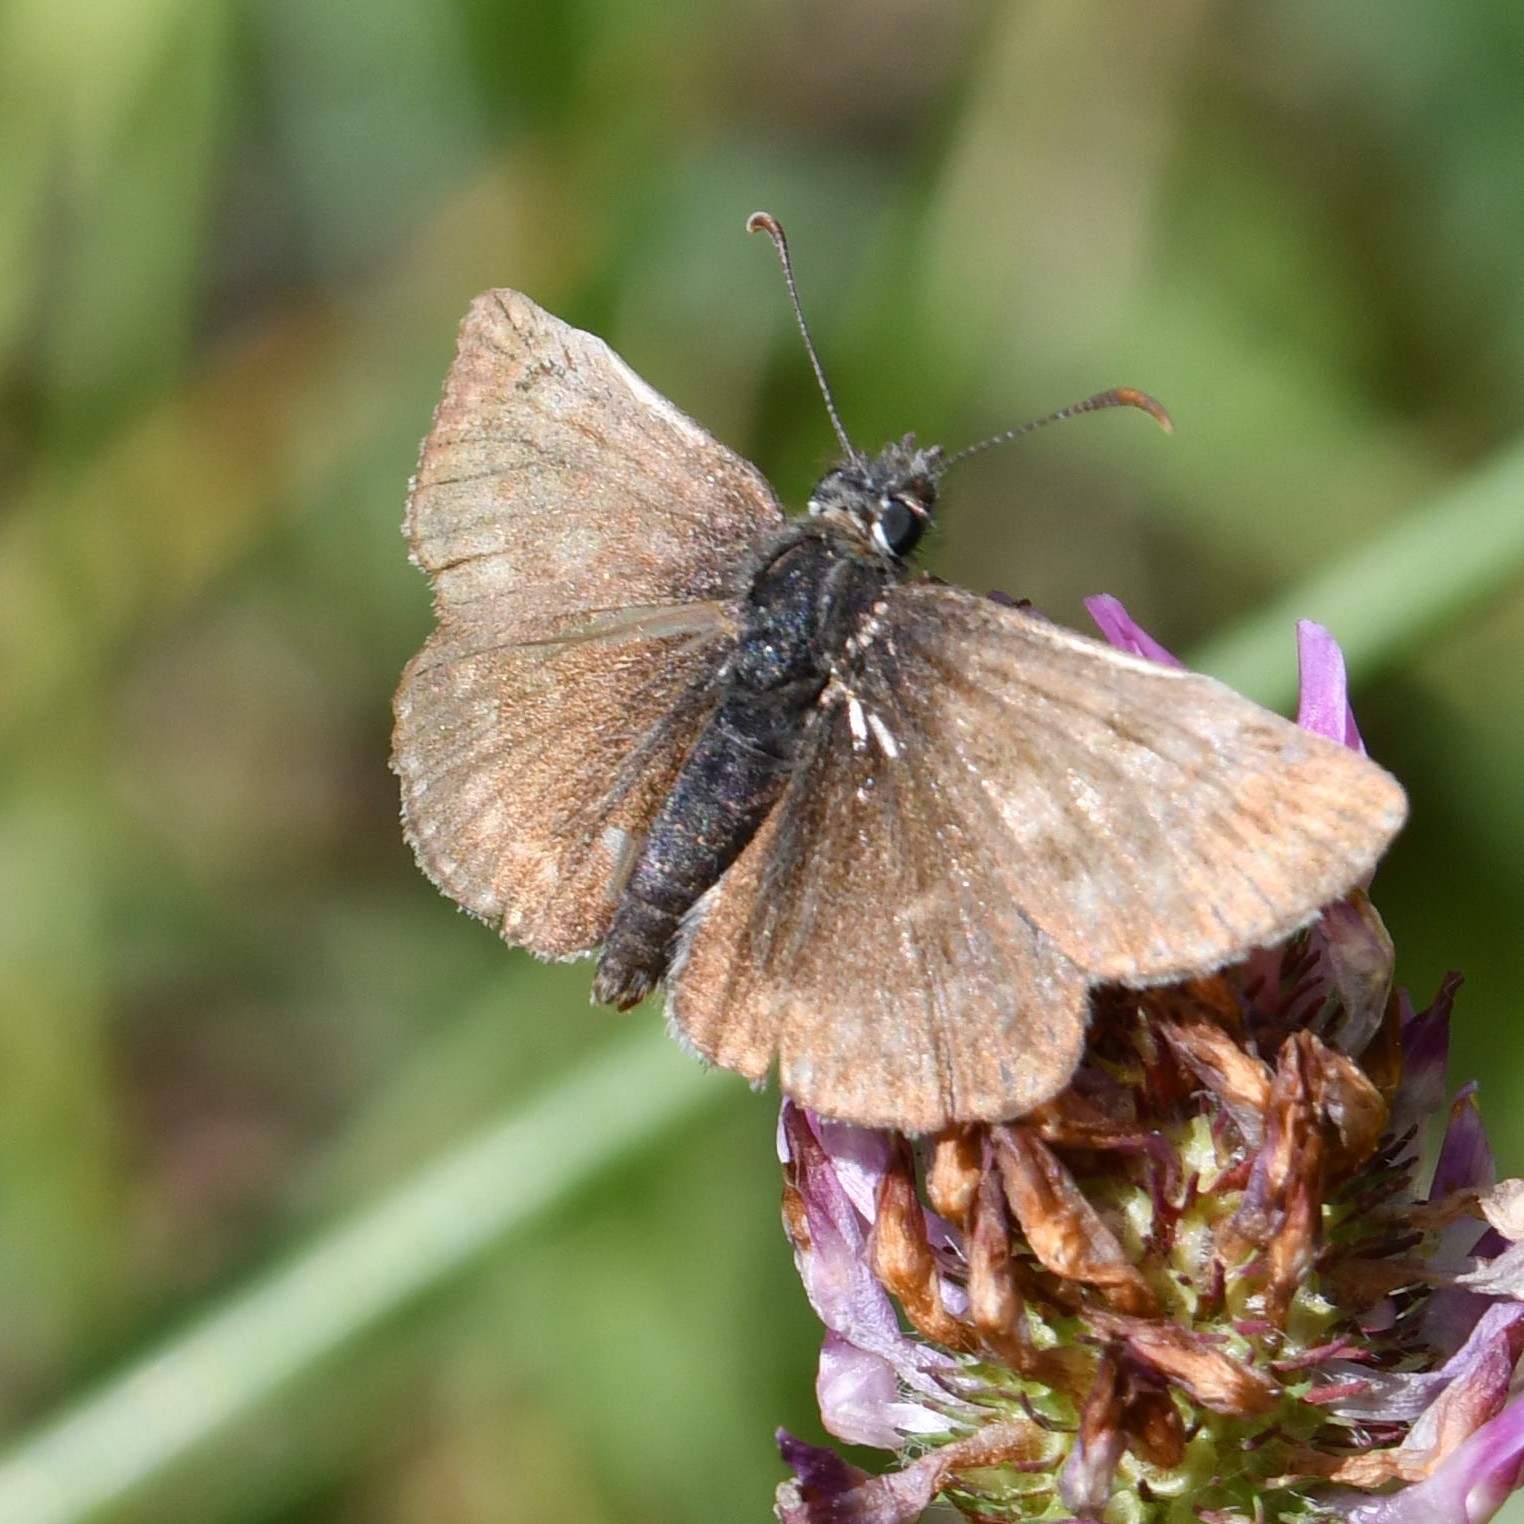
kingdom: Animalia
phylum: Arthropoda
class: Insecta
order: Lepidoptera
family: Hesperiidae
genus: Erynnis
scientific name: Erynnis tages
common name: Dingy skipper
